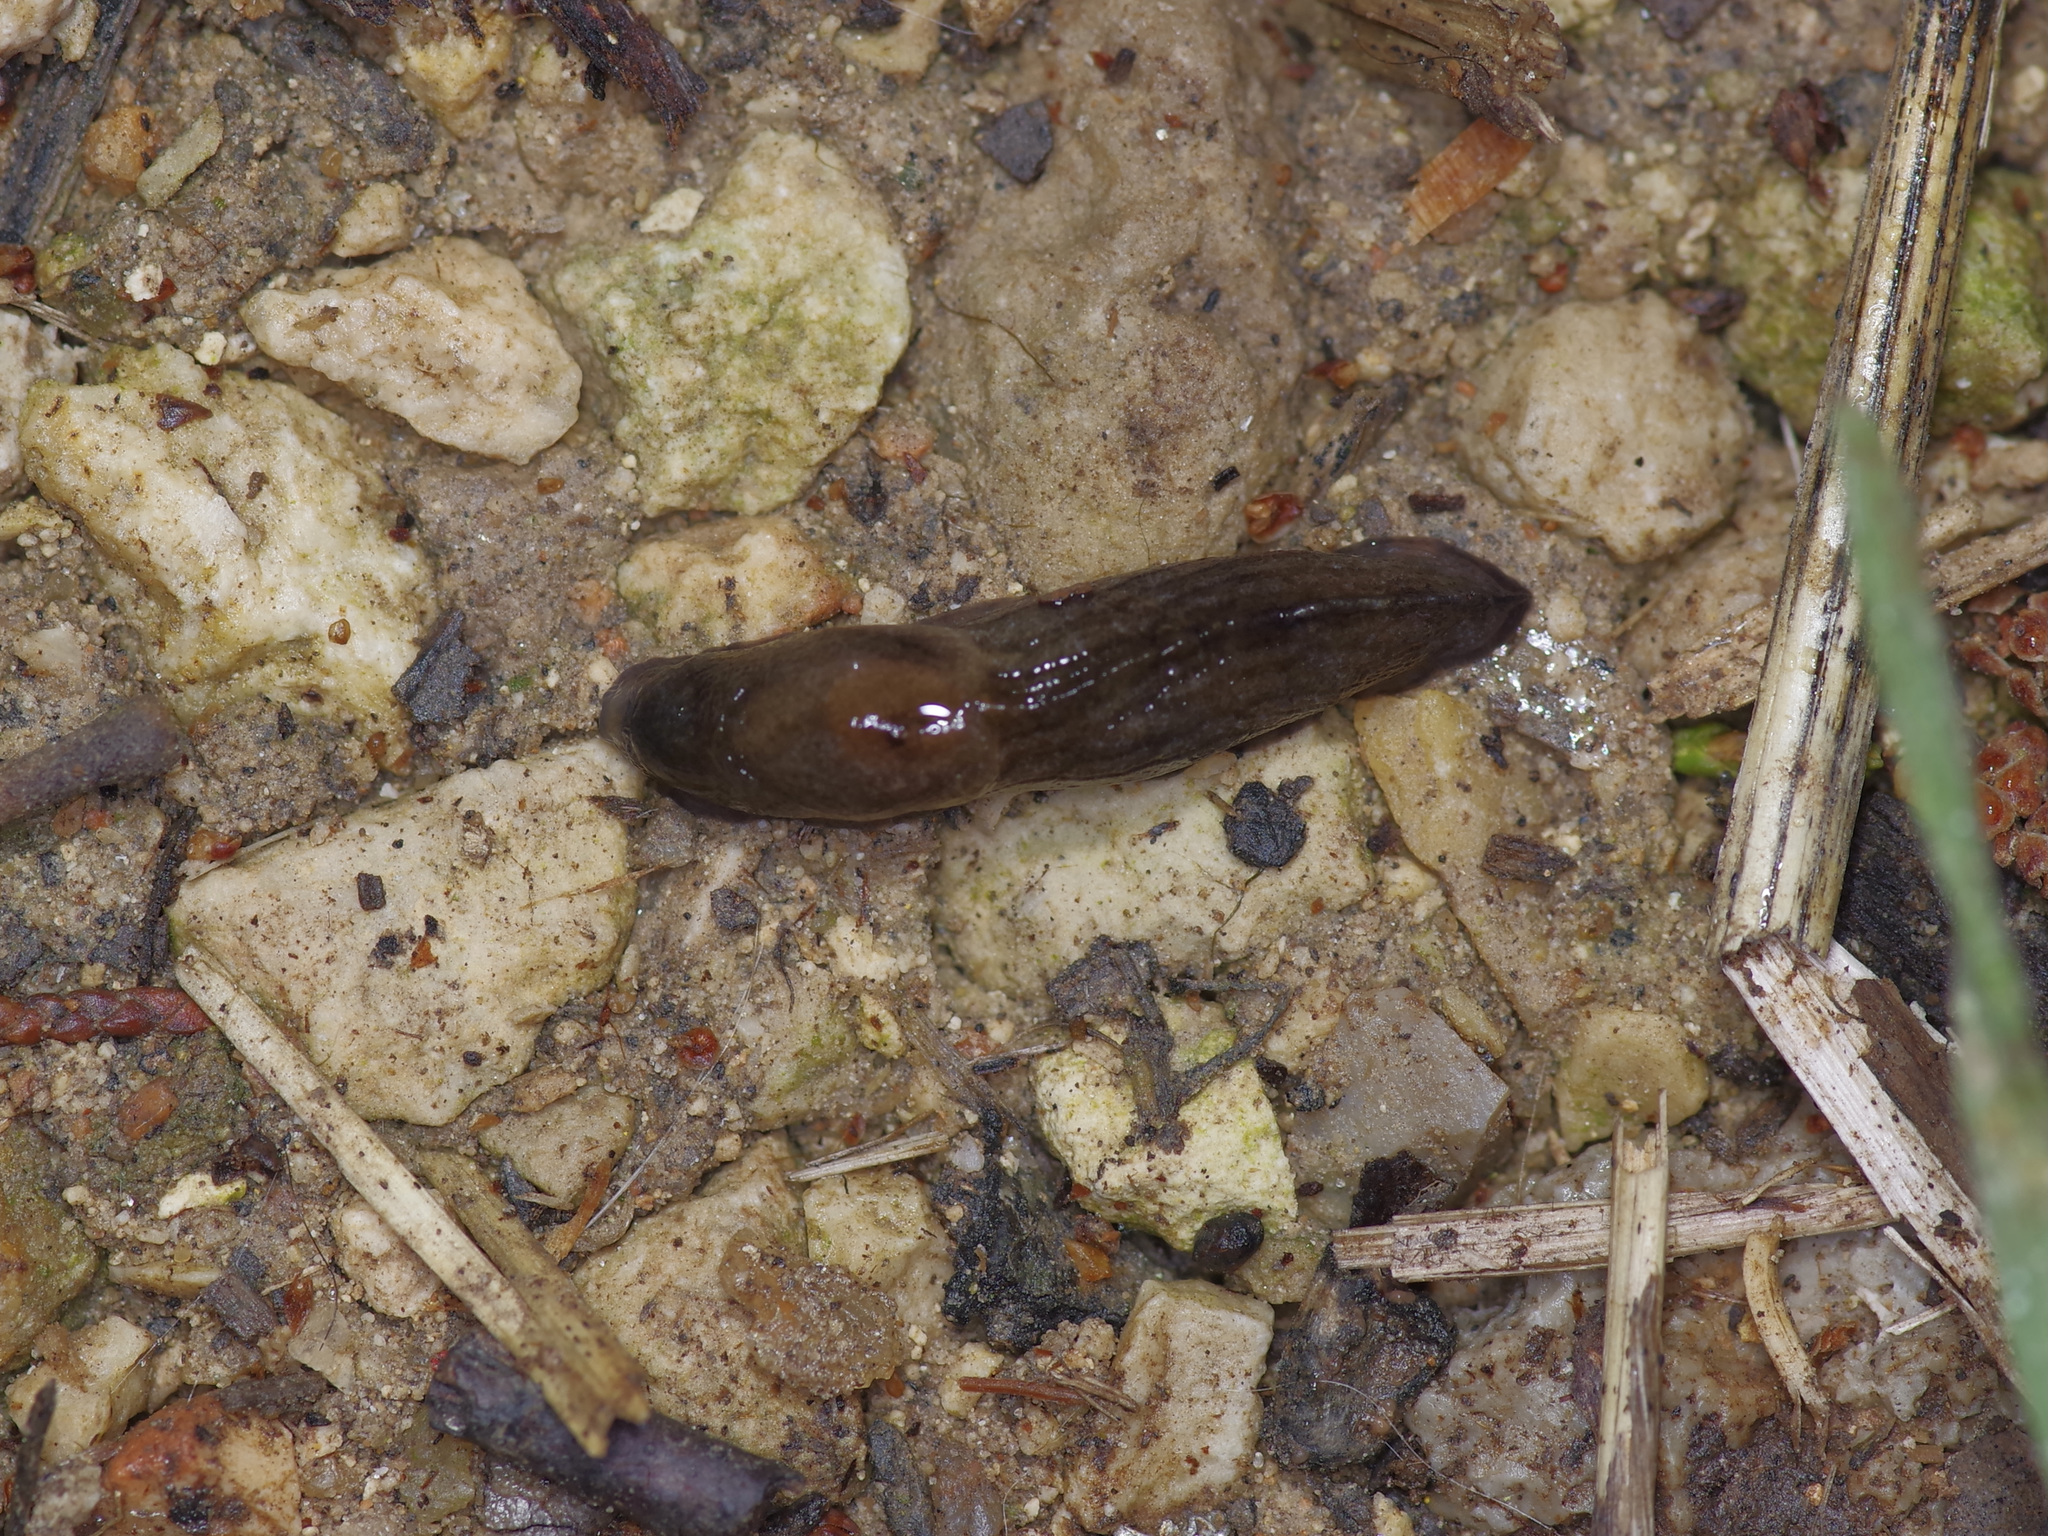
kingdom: Animalia
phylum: Mollusca
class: Gastropoda
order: Stylommatophora
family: Milacidae
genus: Milax
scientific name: Milax gagates
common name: Greenhouse slug
